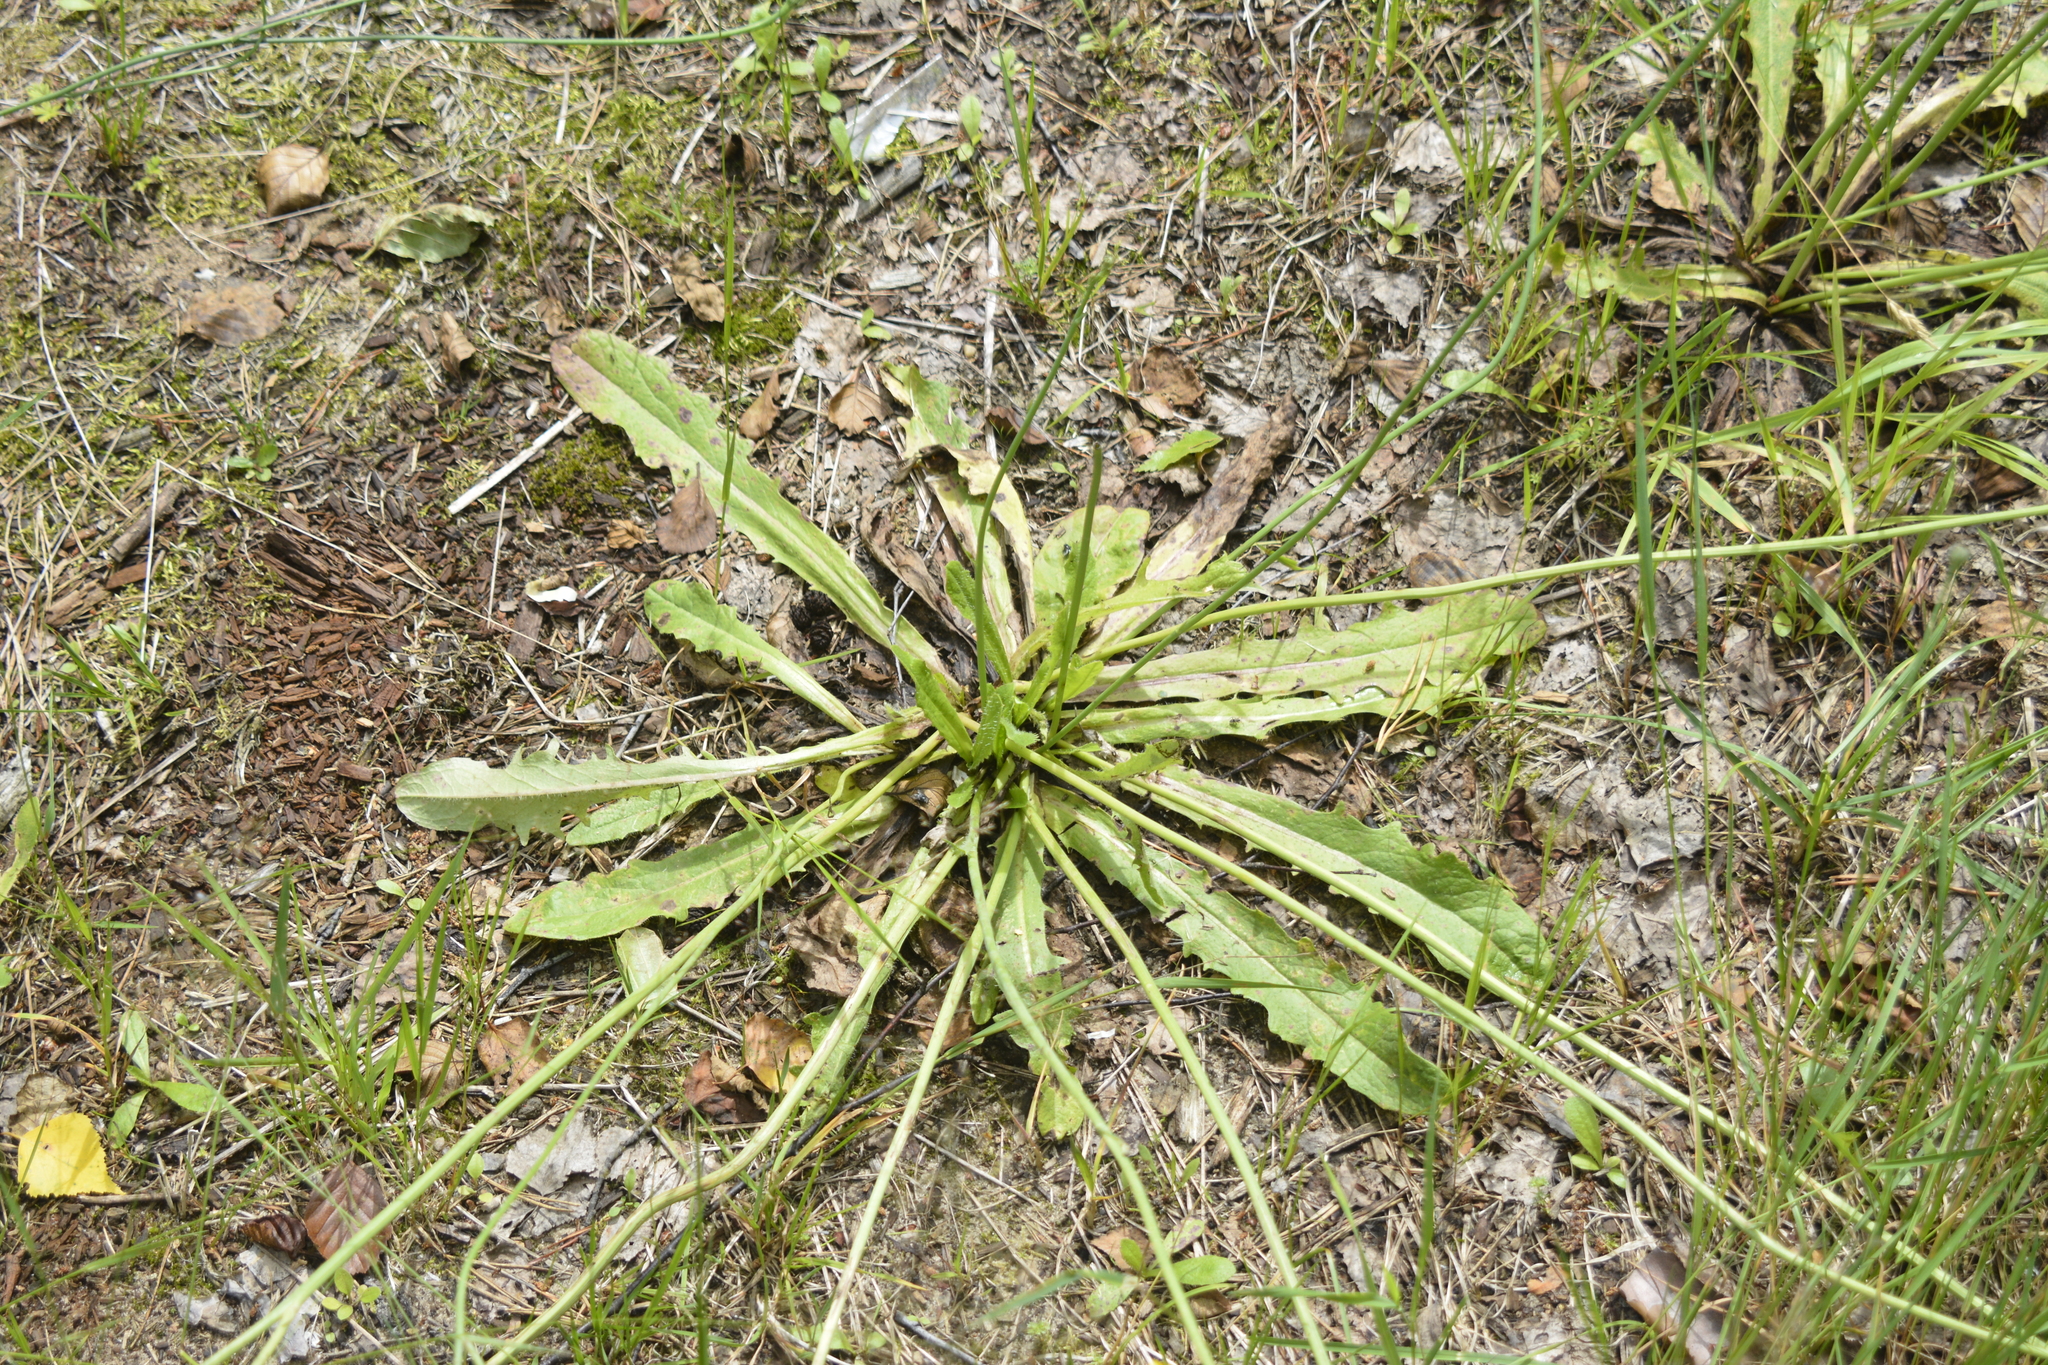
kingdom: Plantae
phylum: Tracheophyta
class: Magnoliopsida
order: Asterales
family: Asteraceae
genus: Hypochaeris
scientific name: Hypochaeris radicata
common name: Flatweed
